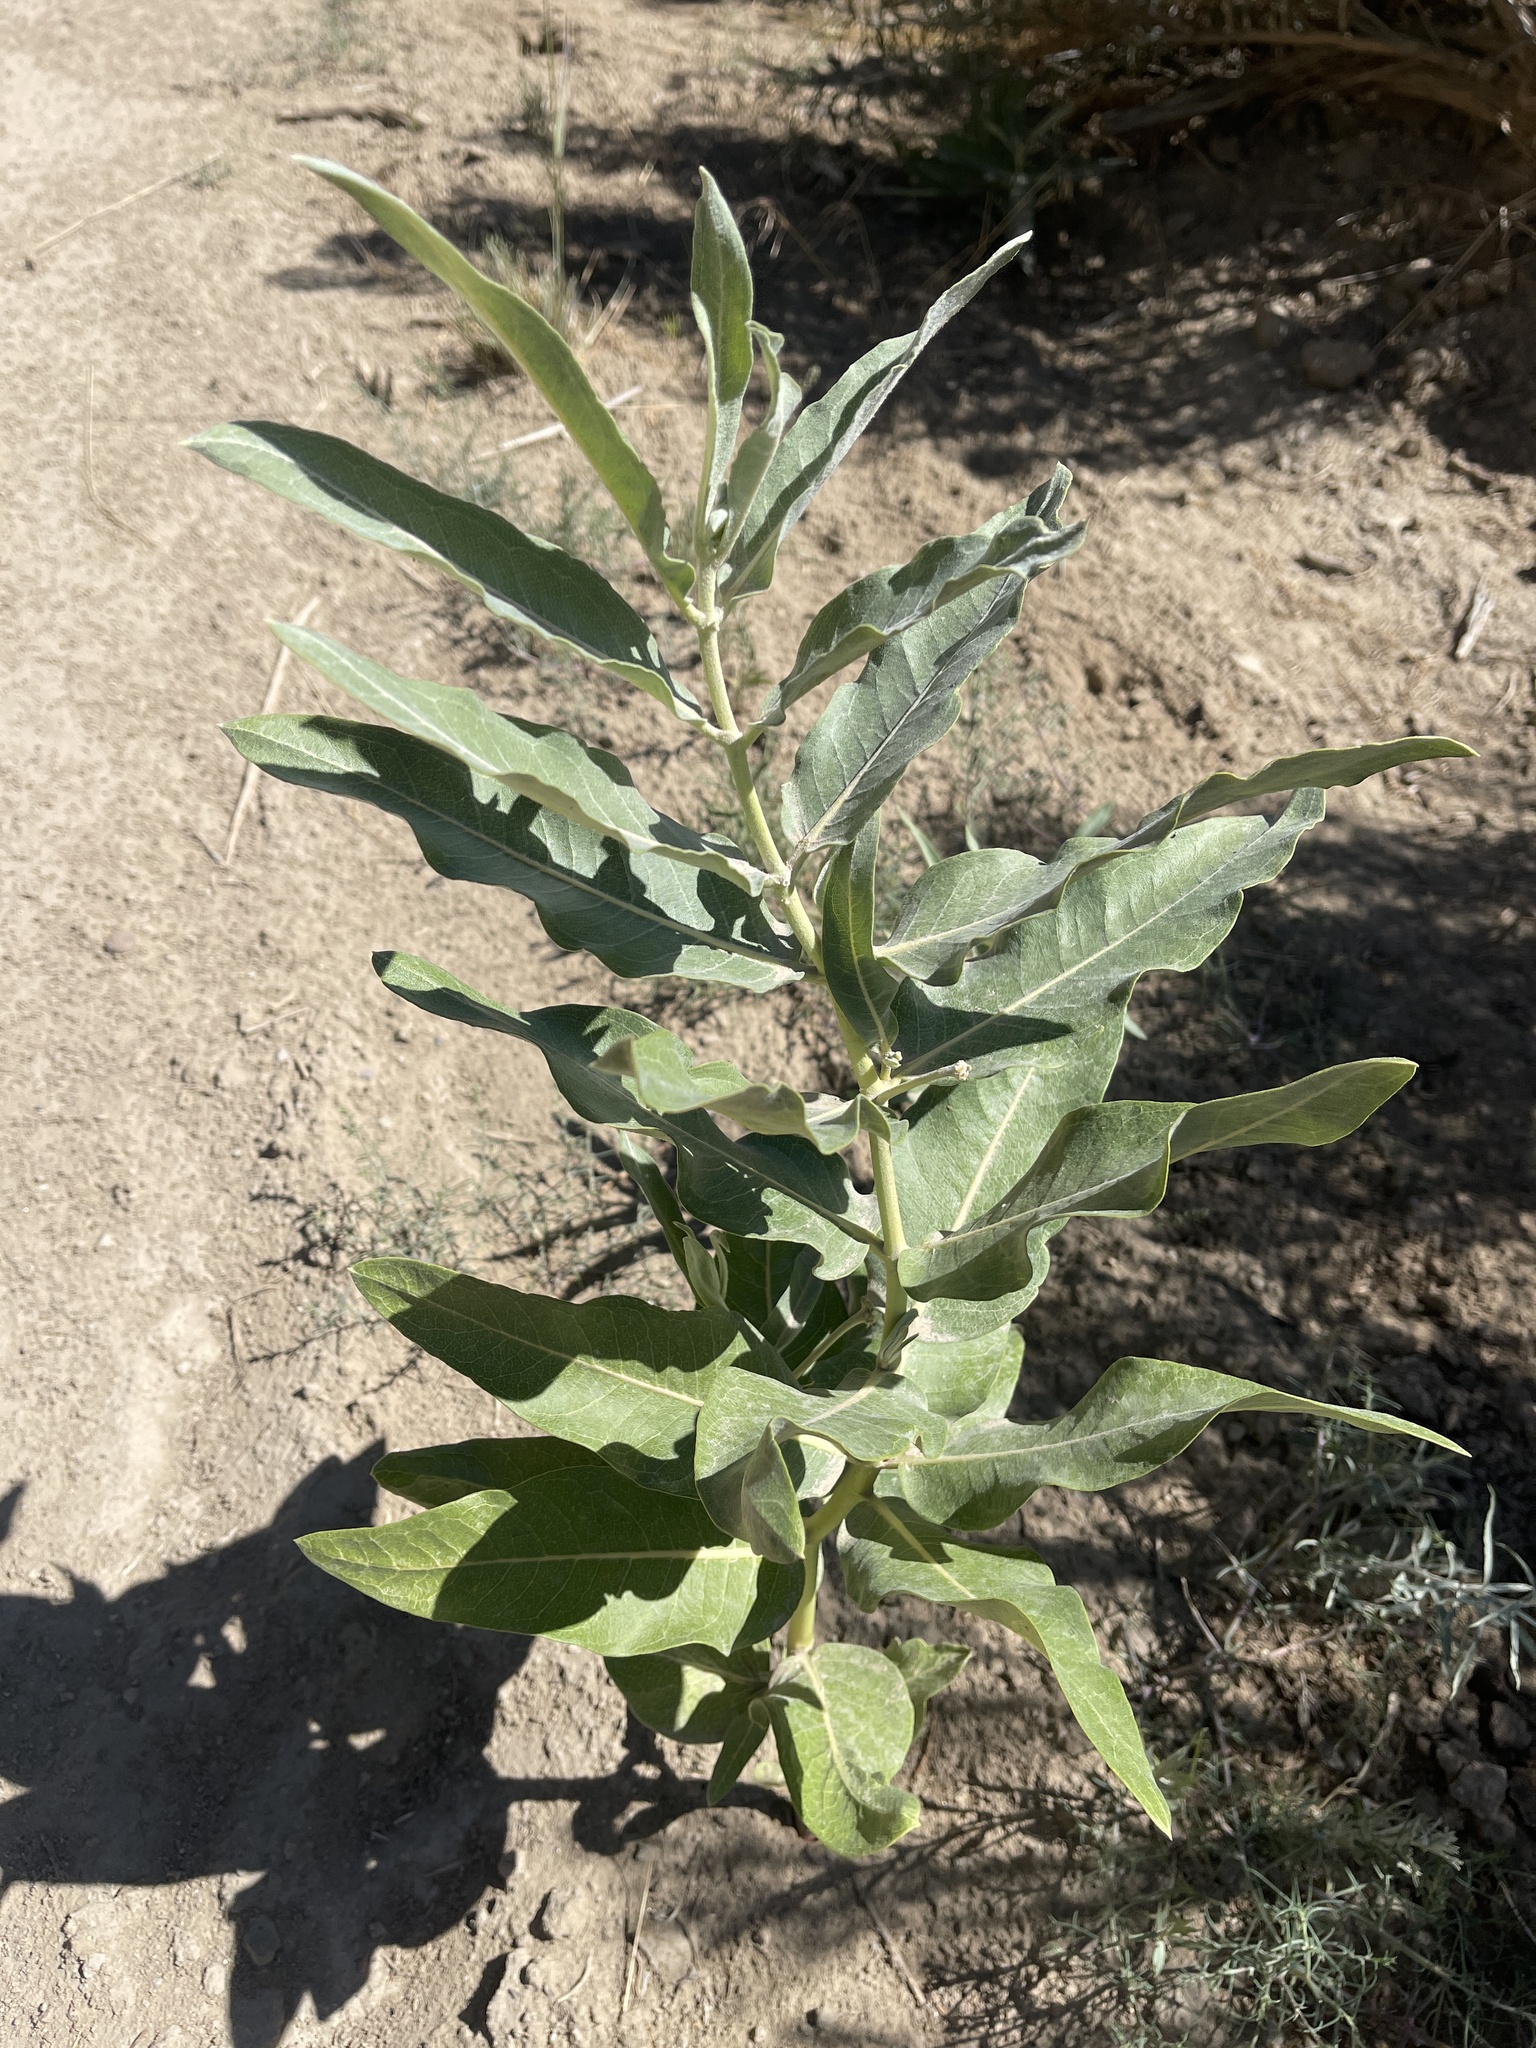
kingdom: Plantae
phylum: Tracheophyta
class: Magnoliopsida
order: Gentianales
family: Apocynaceae
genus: Asclepias
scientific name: Asclepias speciosa
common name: Showy milkweed
